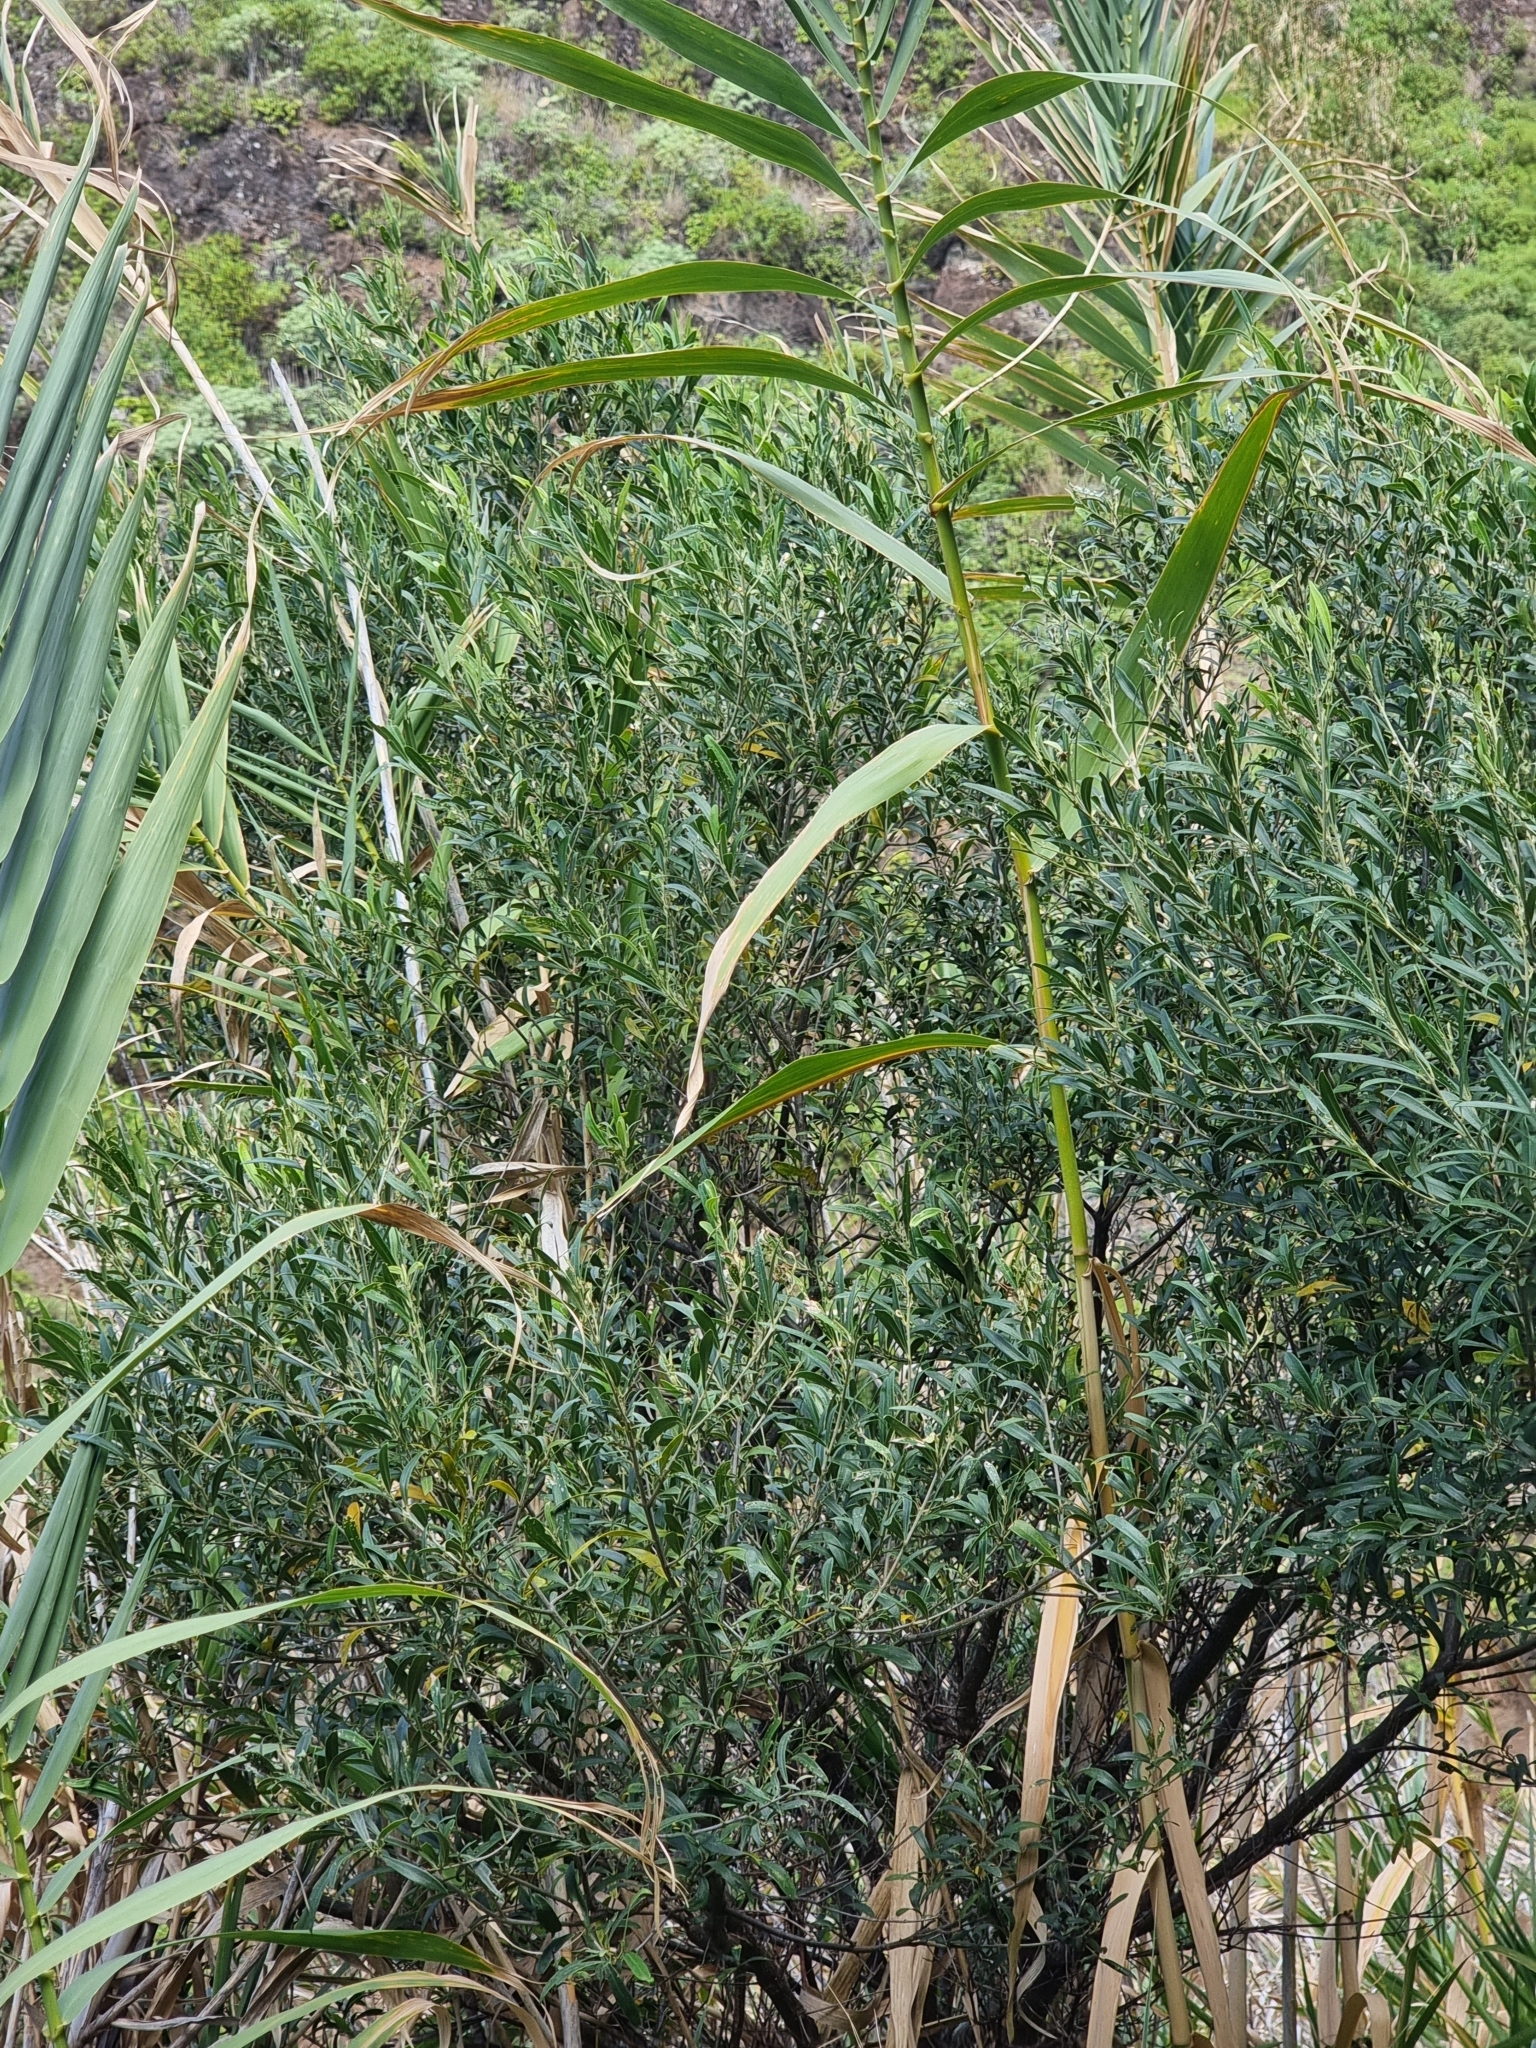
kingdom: Plantae
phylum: Tracheophyta
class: Magnoliopsida
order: Lamiales
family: Oleaceae
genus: Olea
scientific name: Olea europaea
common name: Olive
